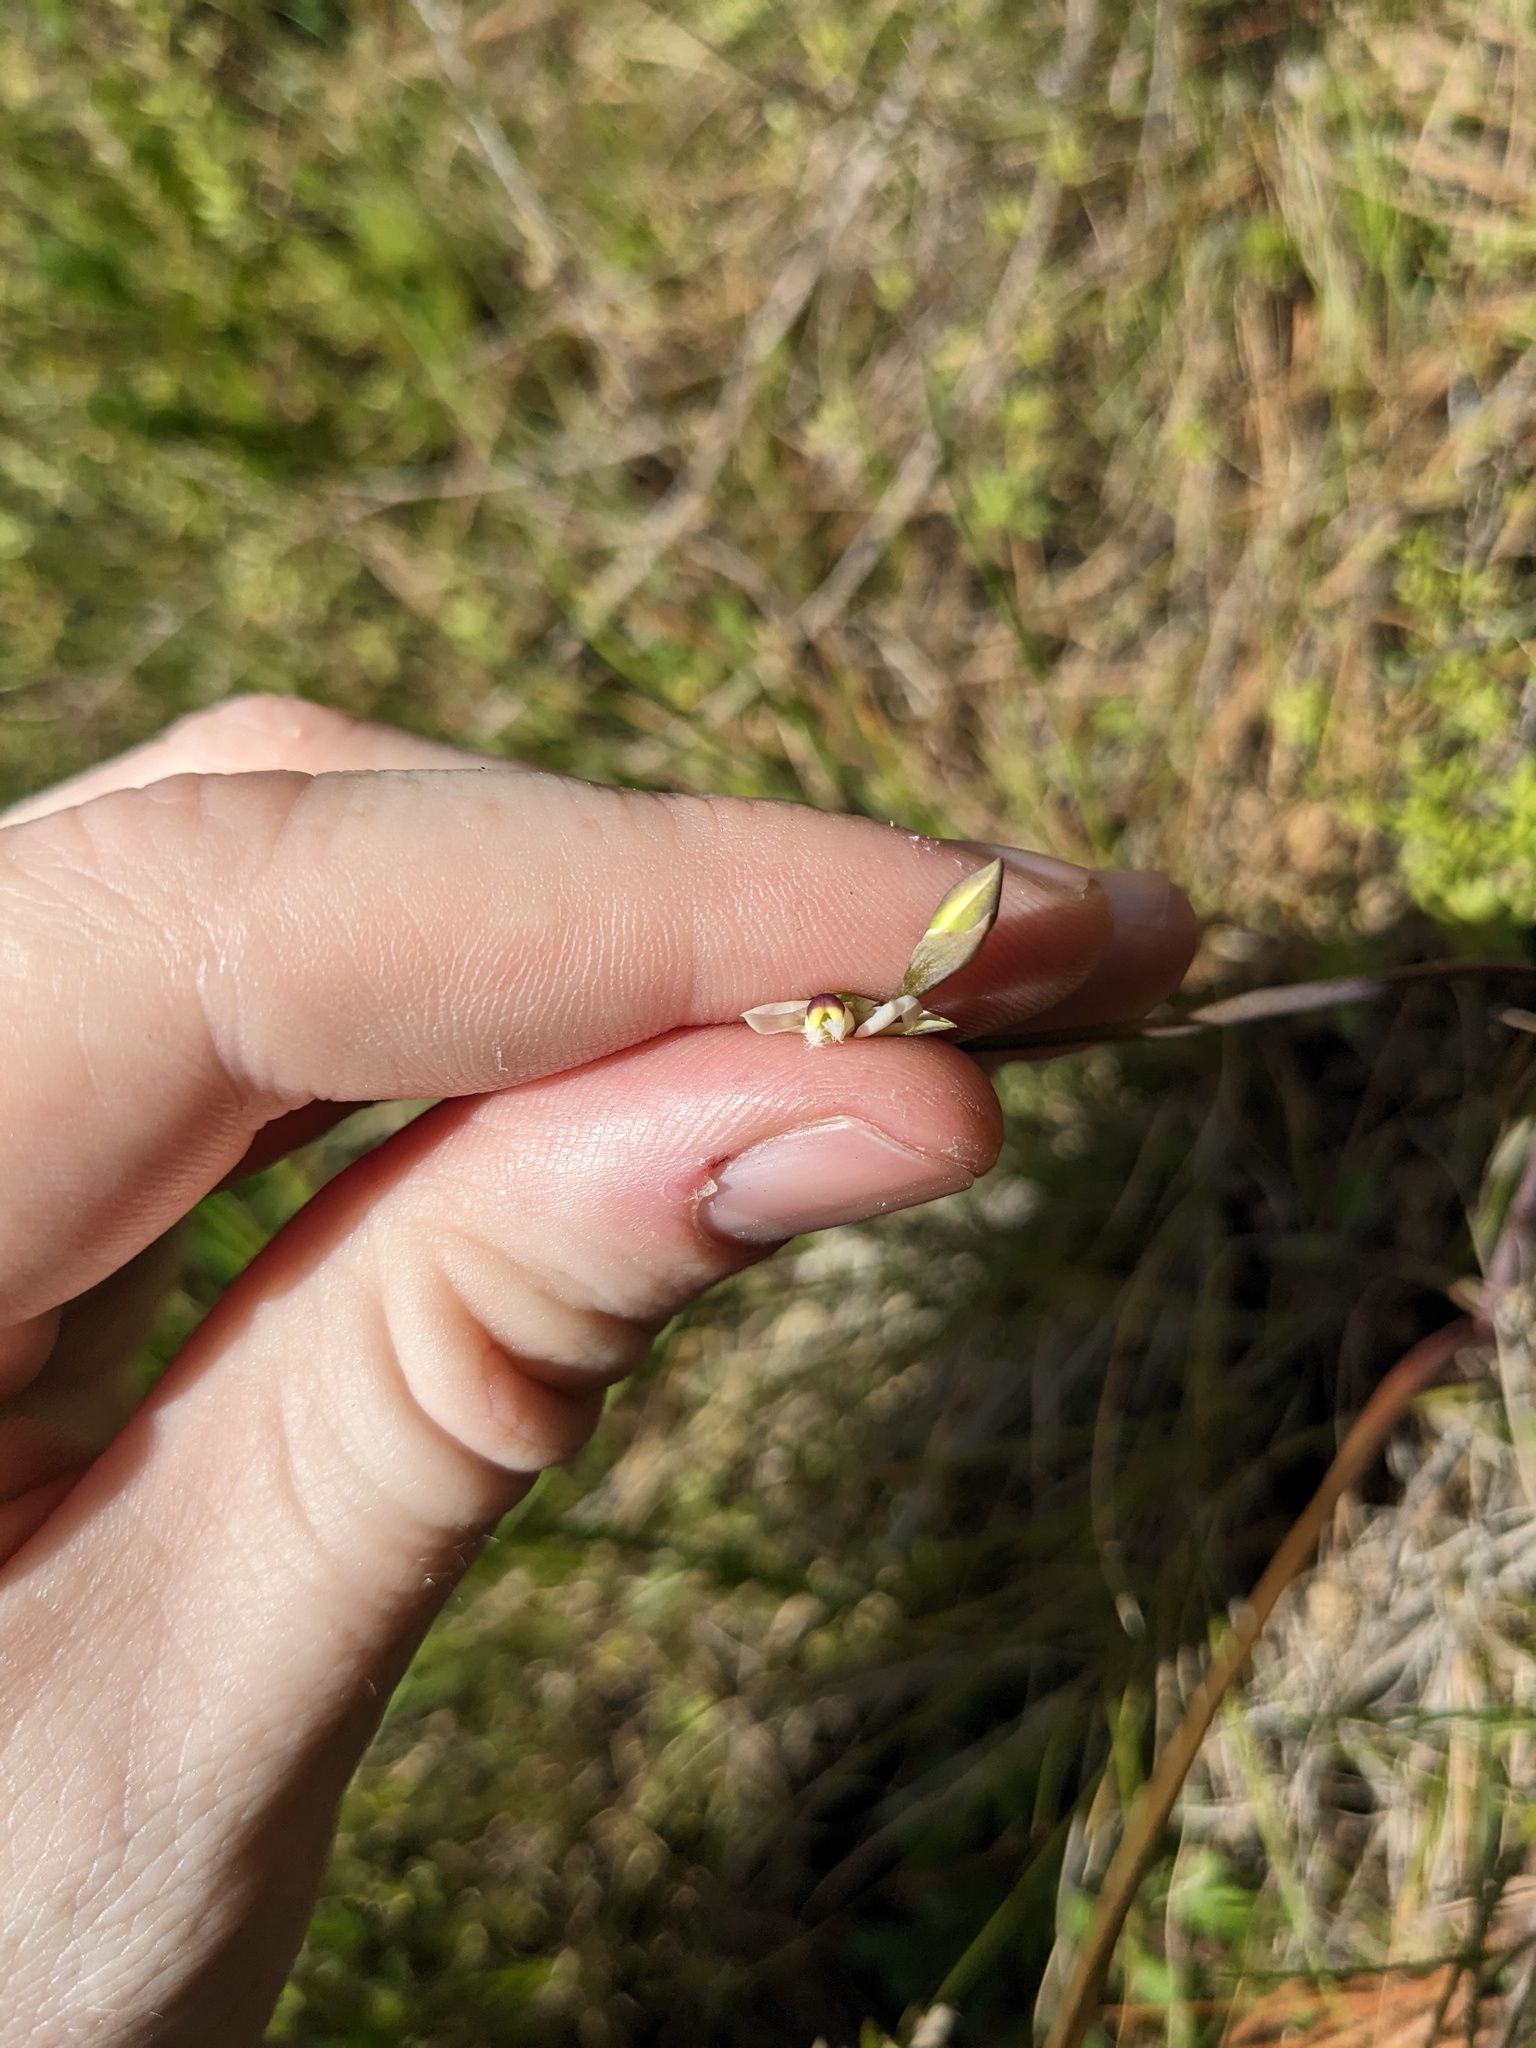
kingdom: Plantae
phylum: Tracheophyta
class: Liliopsida
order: Asparagales
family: Orchidaceae
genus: Thelymitra
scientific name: Thelymitra pauciflora
